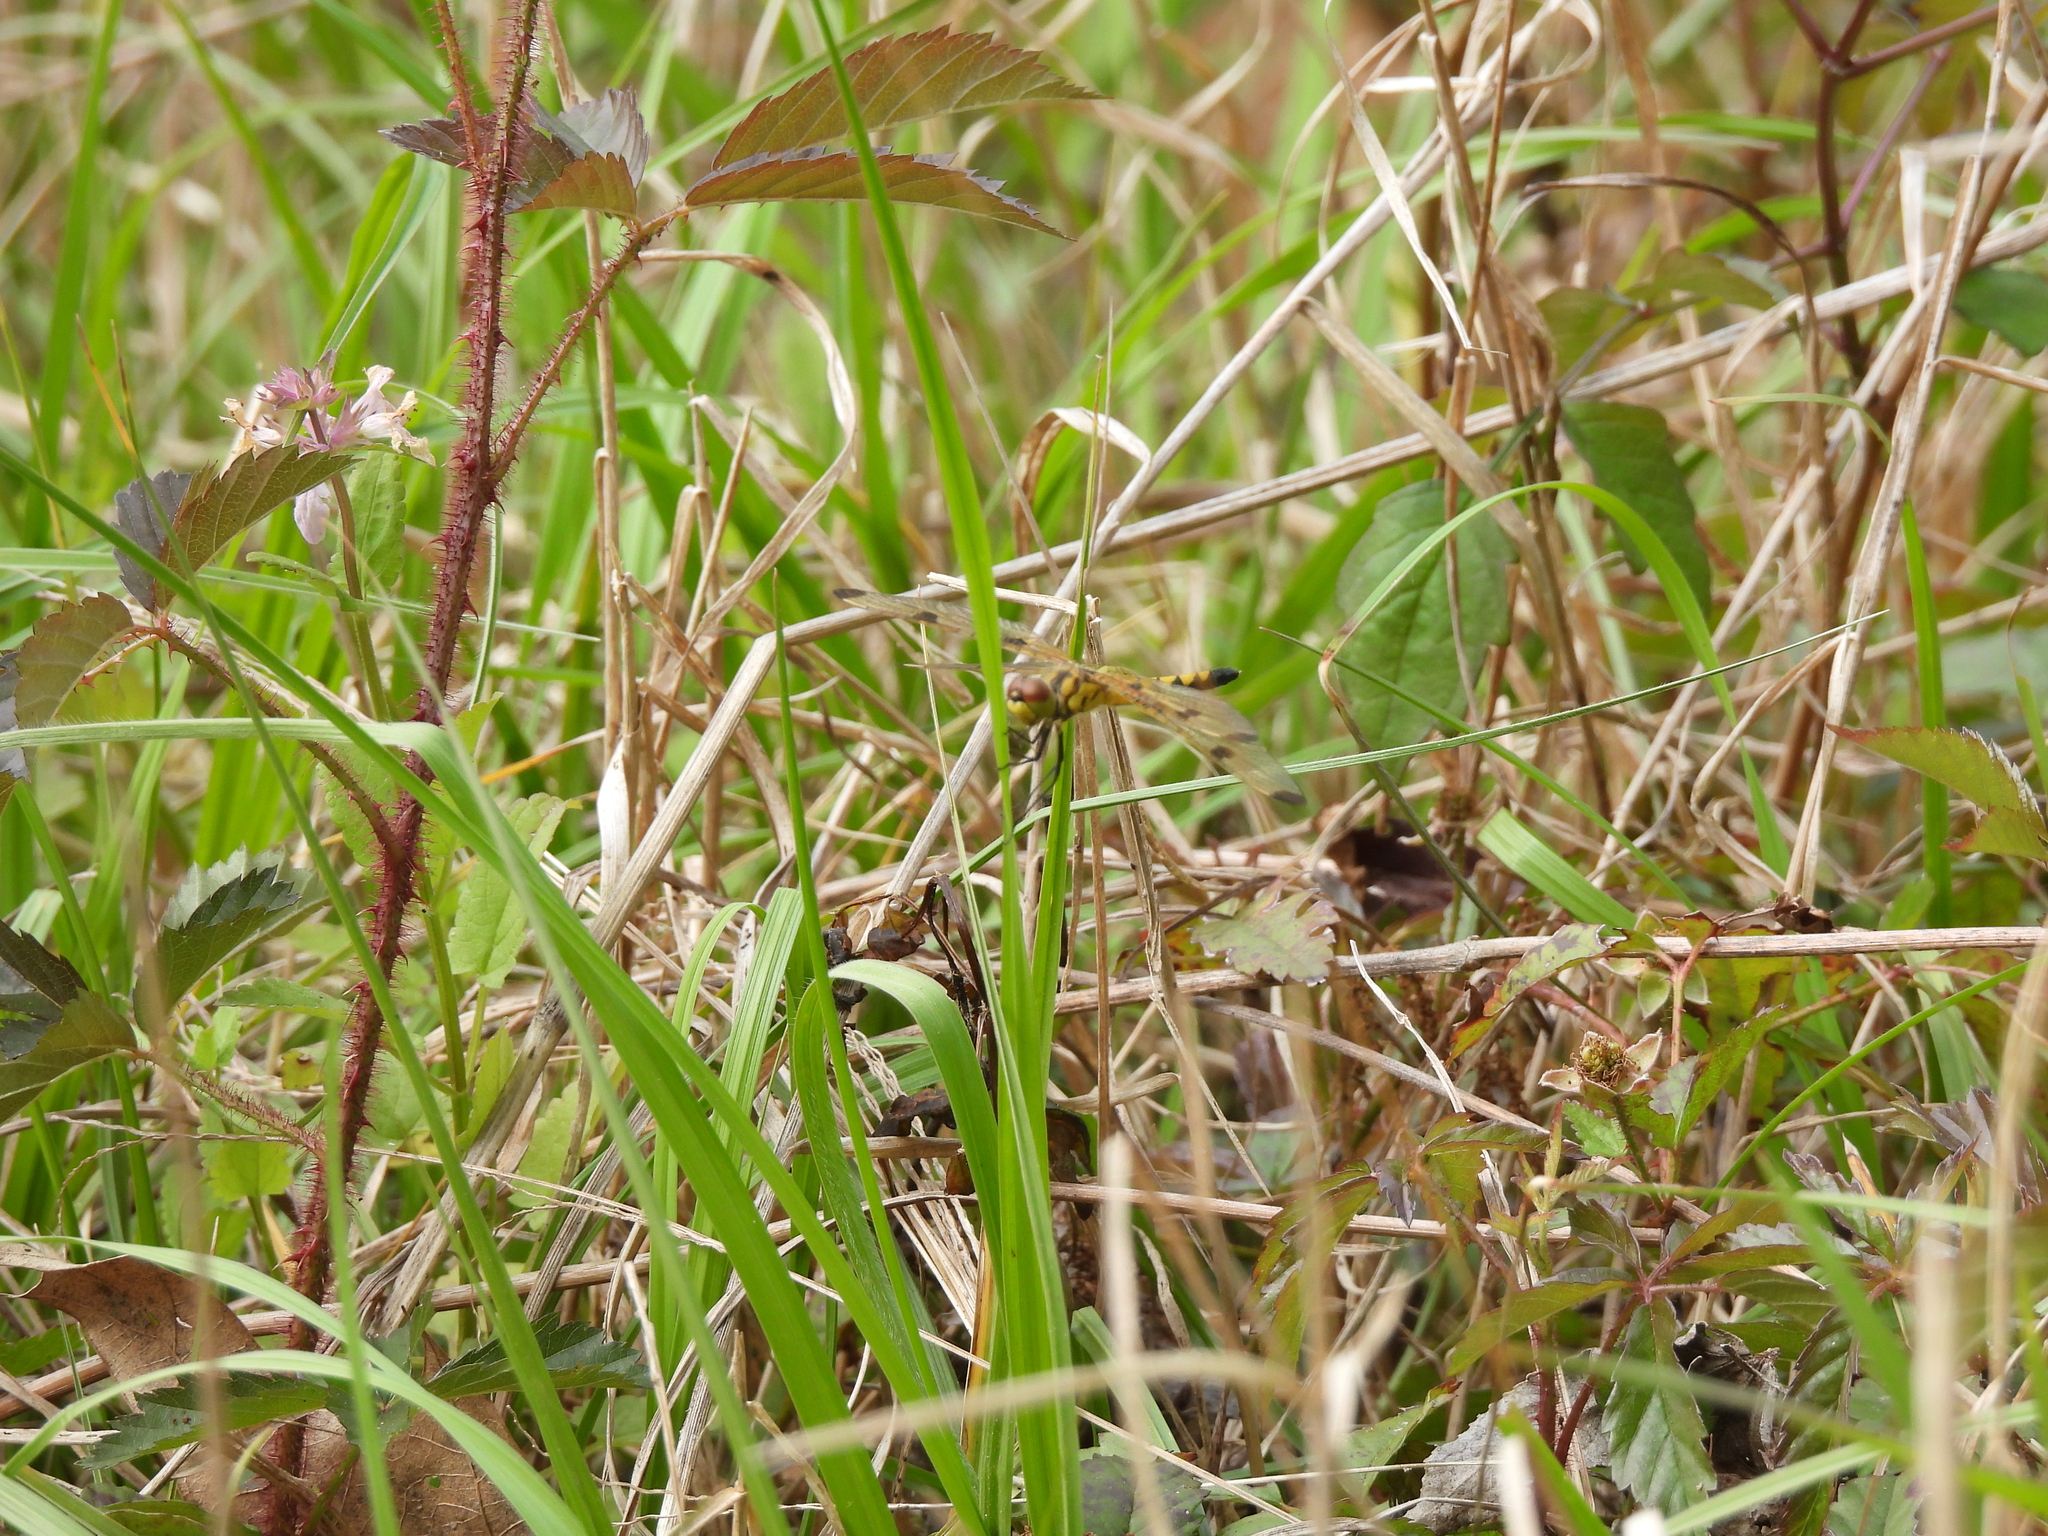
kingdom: Animalia
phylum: Arthropoda
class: Insecta
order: Odonata
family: Libellulidae
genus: Celithemis
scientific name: Celithemis elisa
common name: Calico pennant
